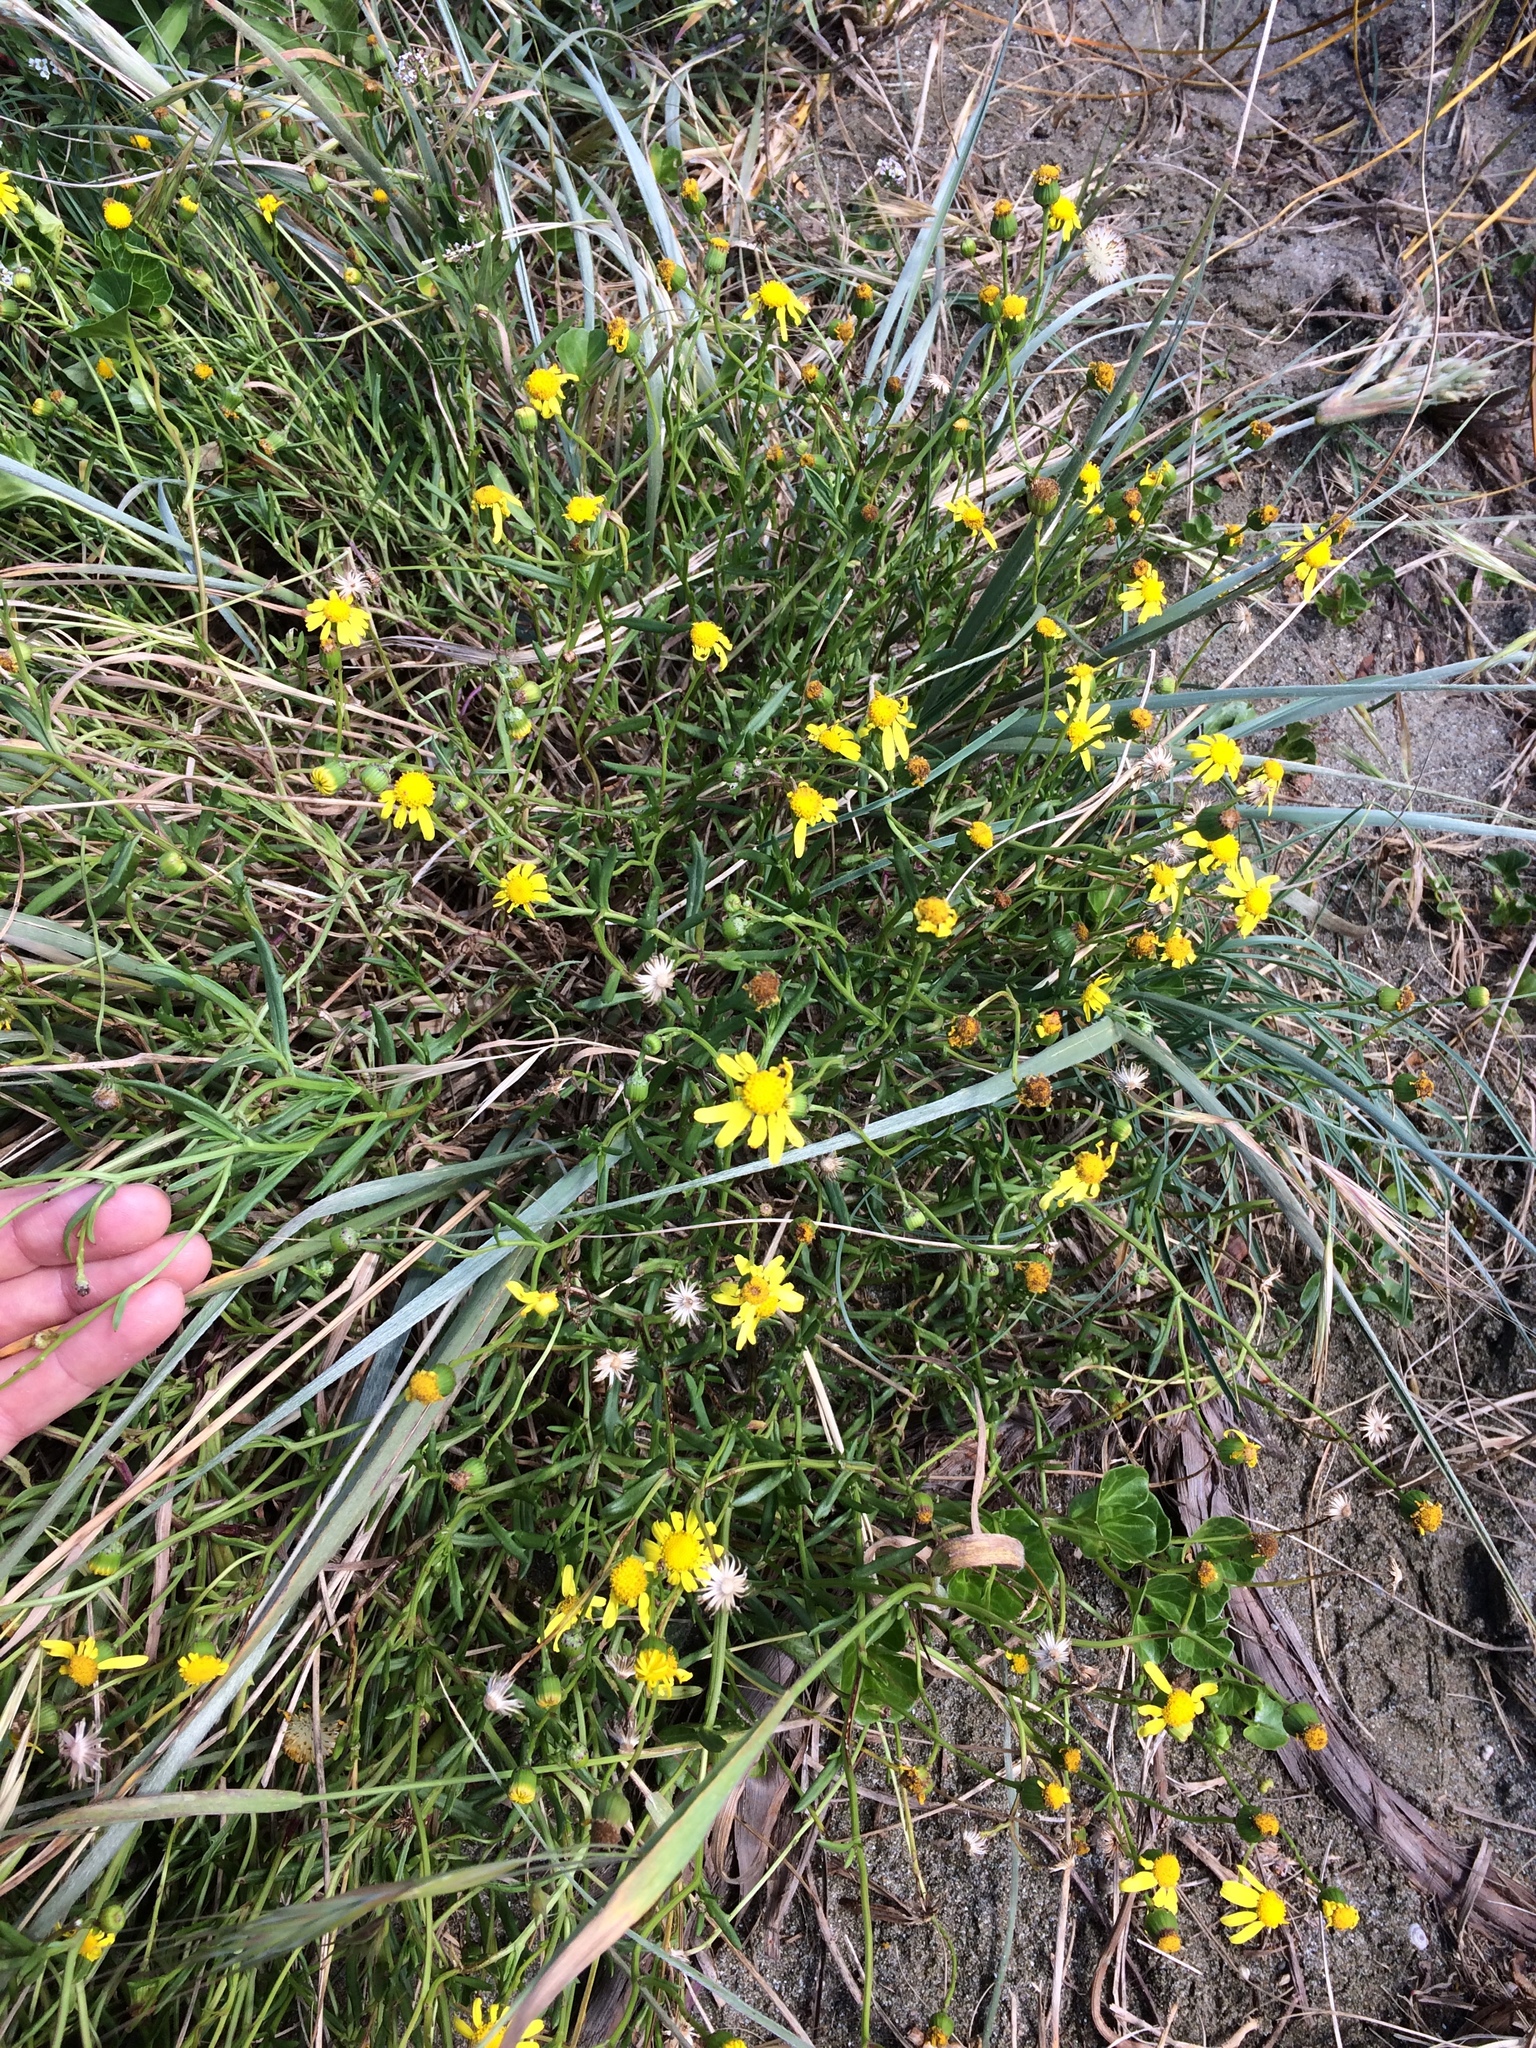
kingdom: Plantae
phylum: Tracheophyta
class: Magnoliopsida
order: Asterales
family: Asteraceae
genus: Senecio
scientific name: Senecio skirrhodon
